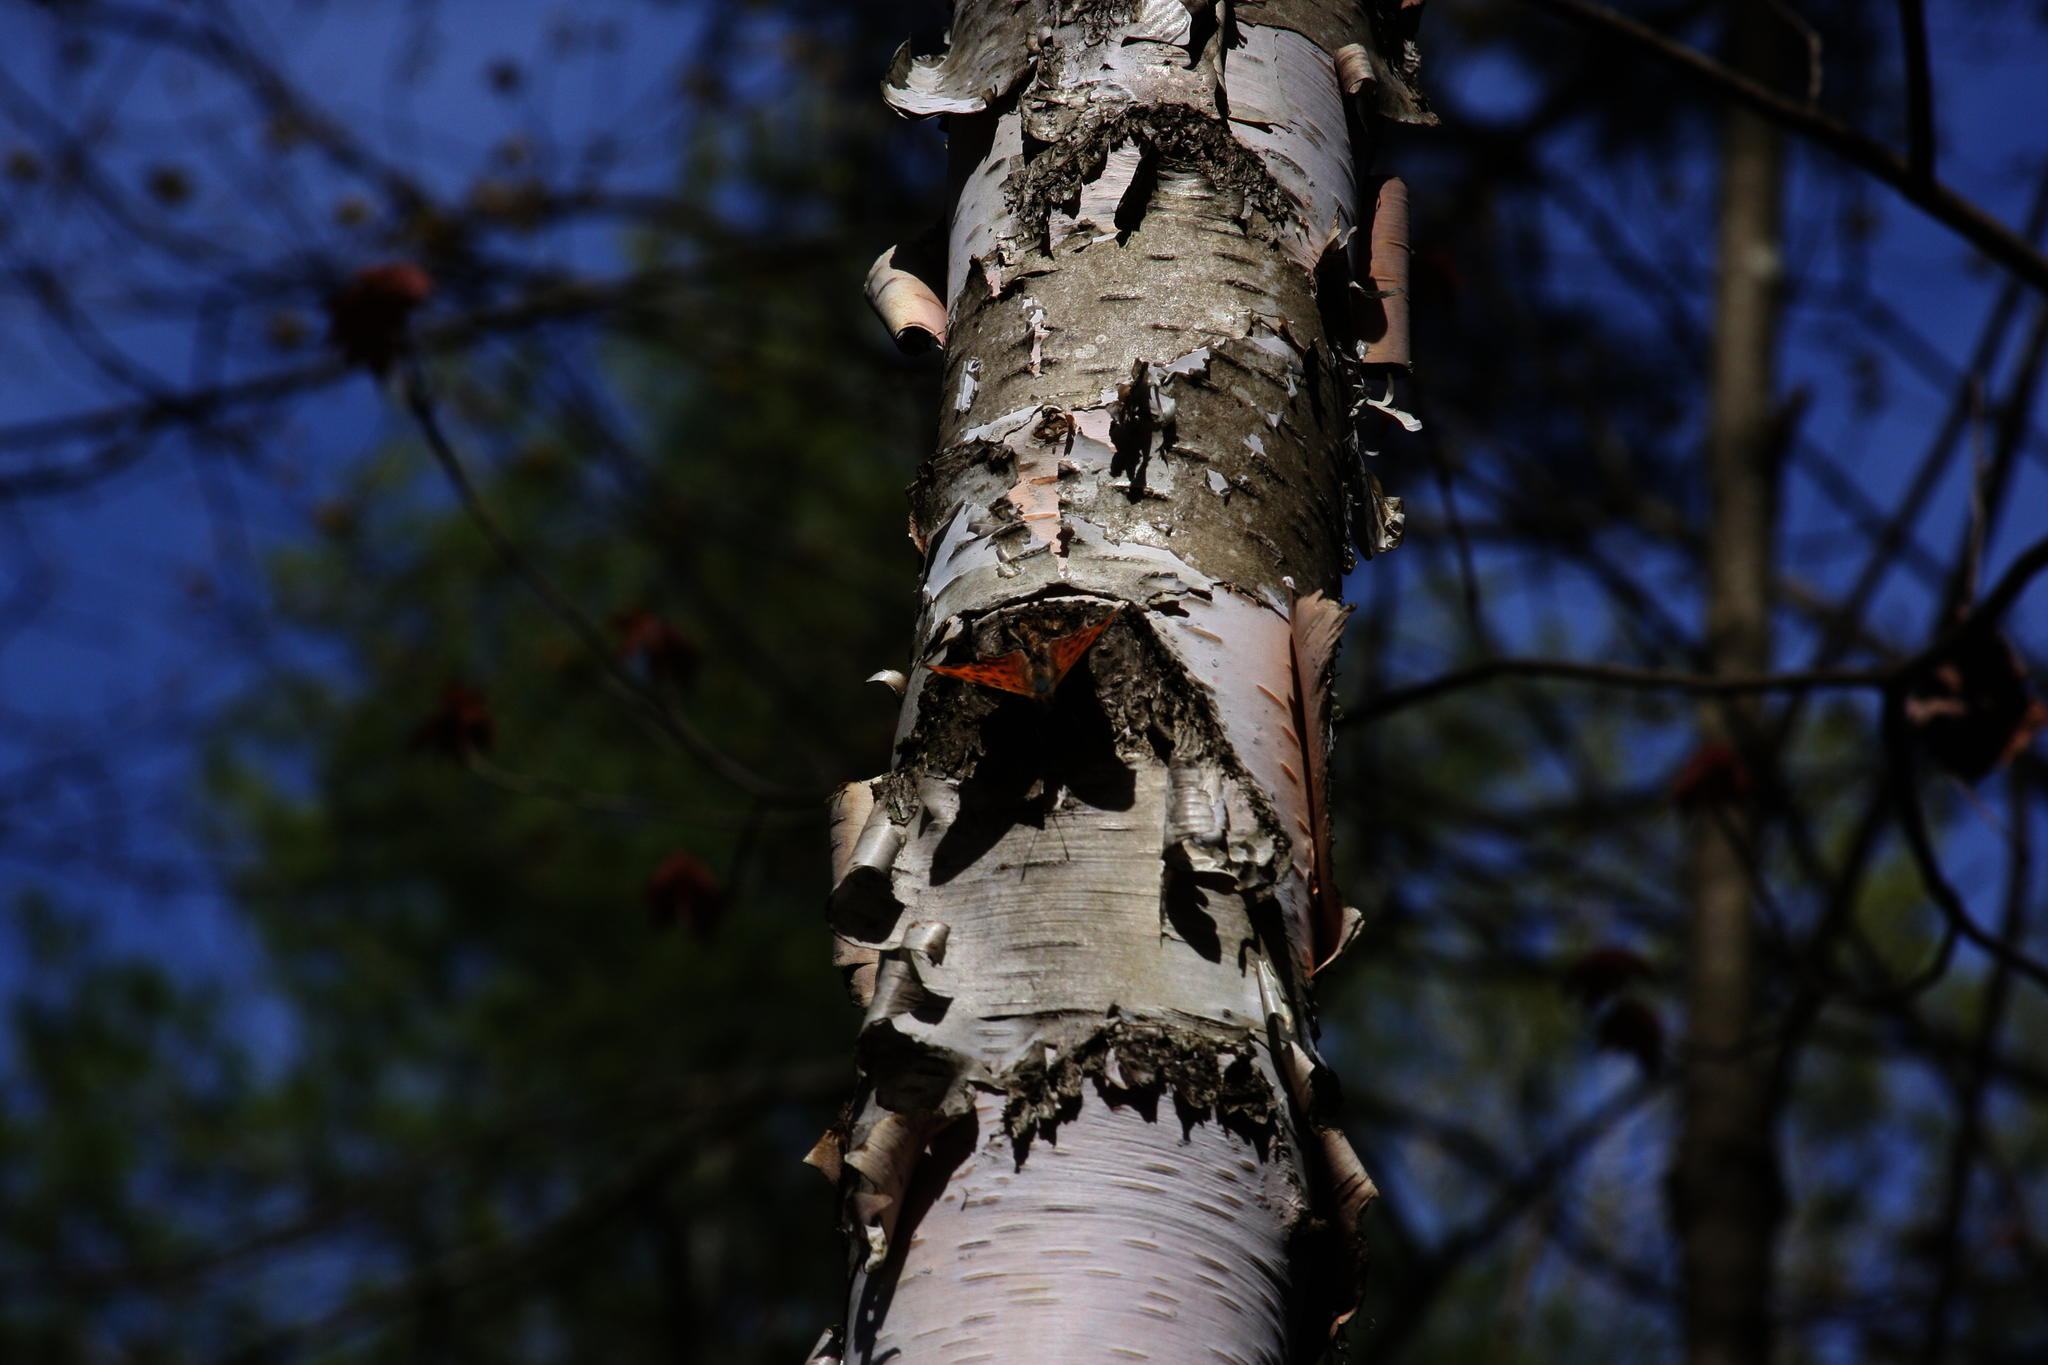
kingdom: Plantae
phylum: Tracheophyta
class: Magnoliopsida
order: Fagales
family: Betulaceae
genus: Betula
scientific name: Betula papyrifera
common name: Paper birch
